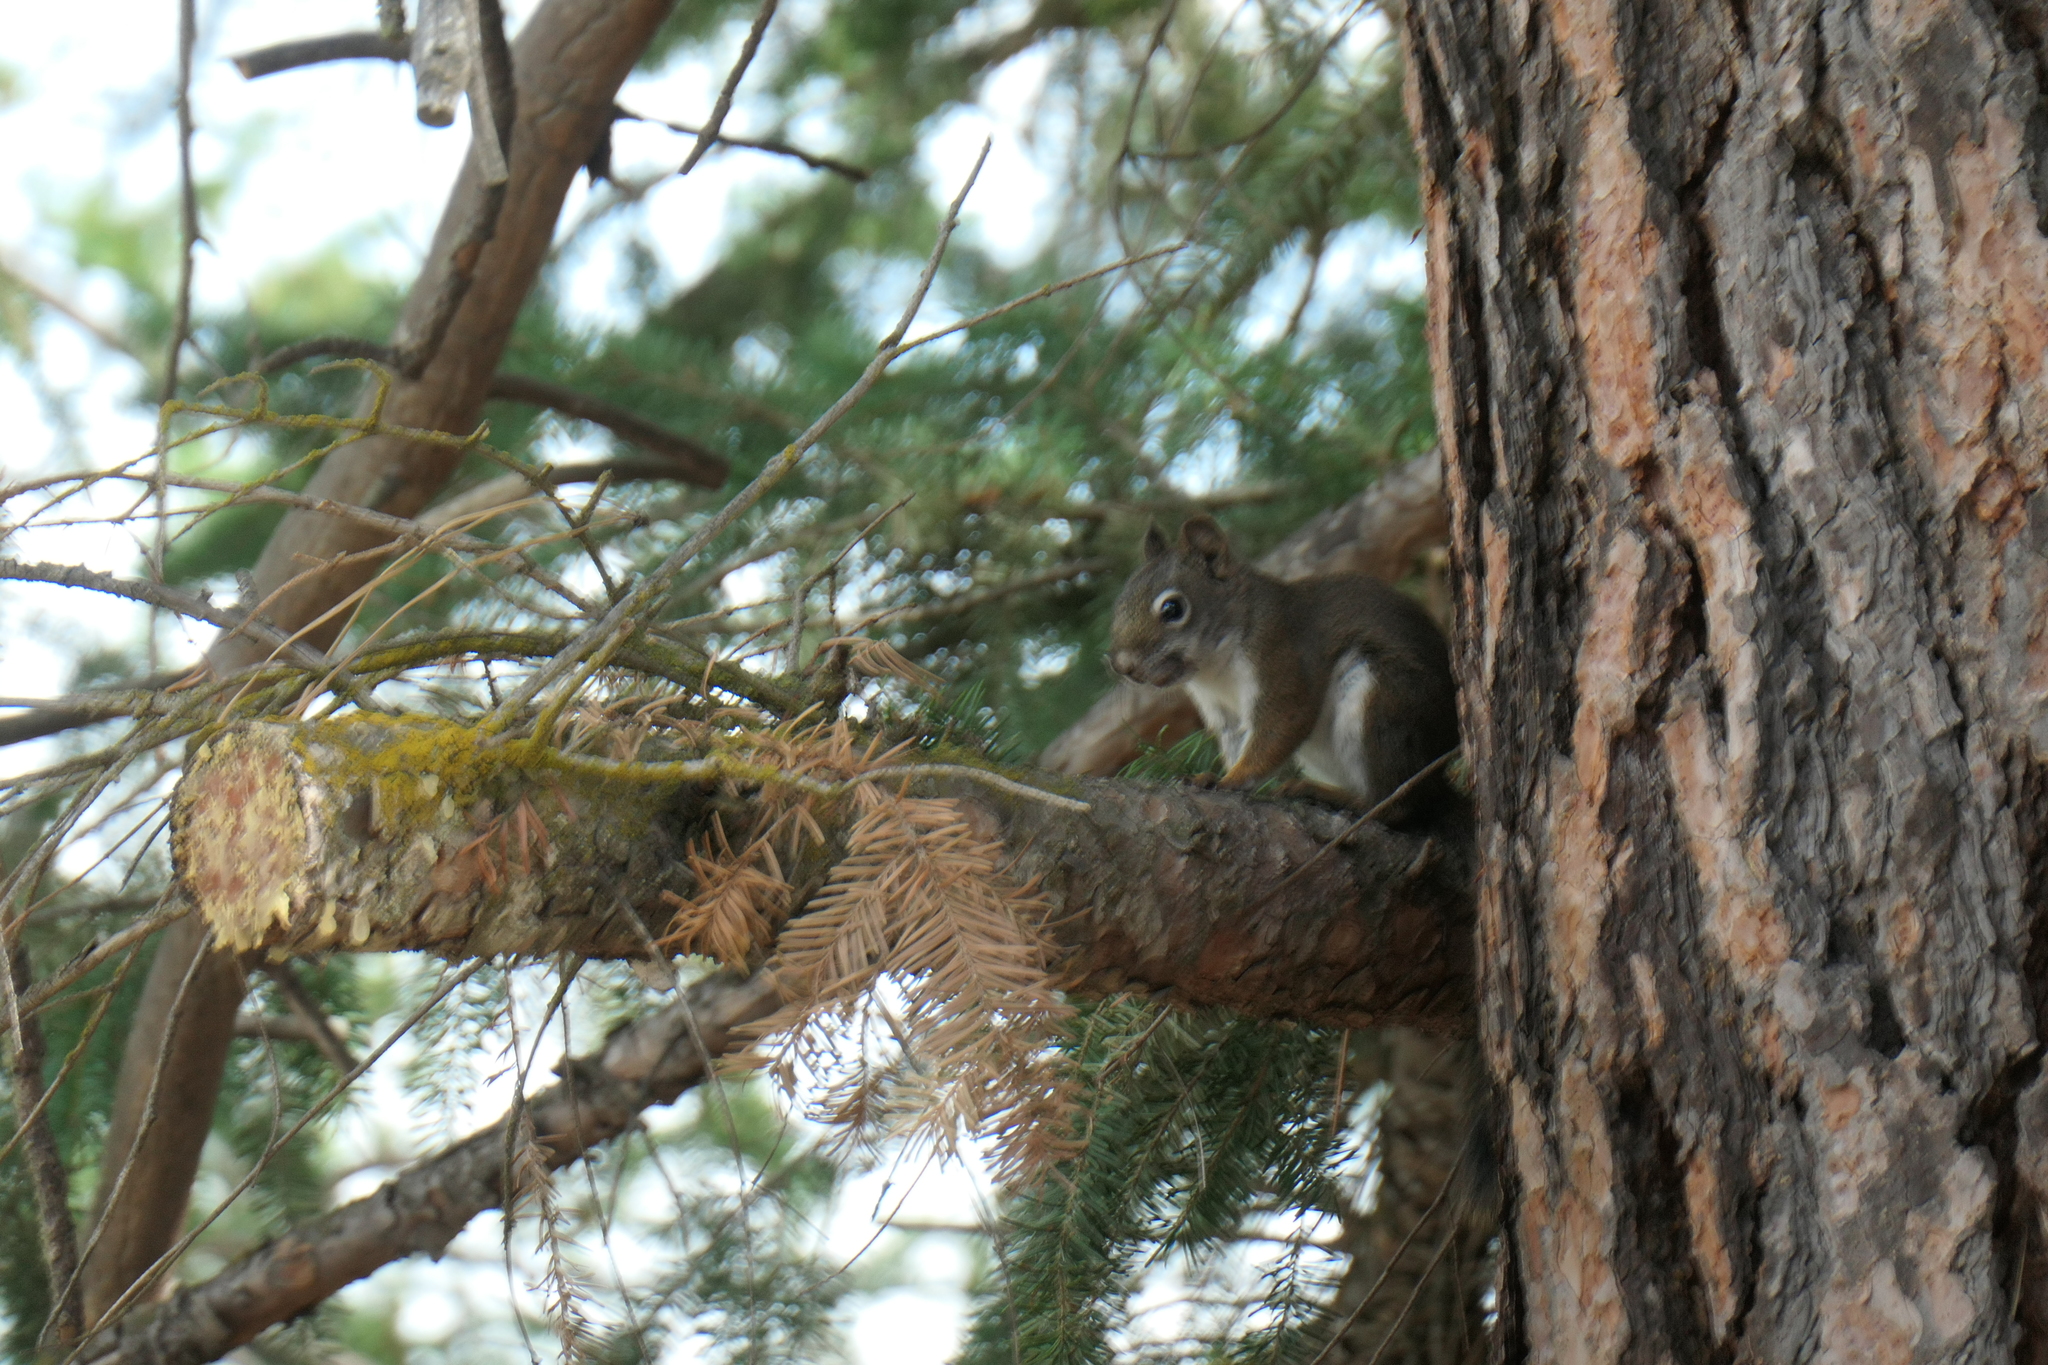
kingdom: Animalia
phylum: Chordata
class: Mammalia
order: Rodentia
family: Sciuridae
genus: Tamiasciurus
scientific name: Tamiasciurus hudsonicus
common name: Red squirrel
